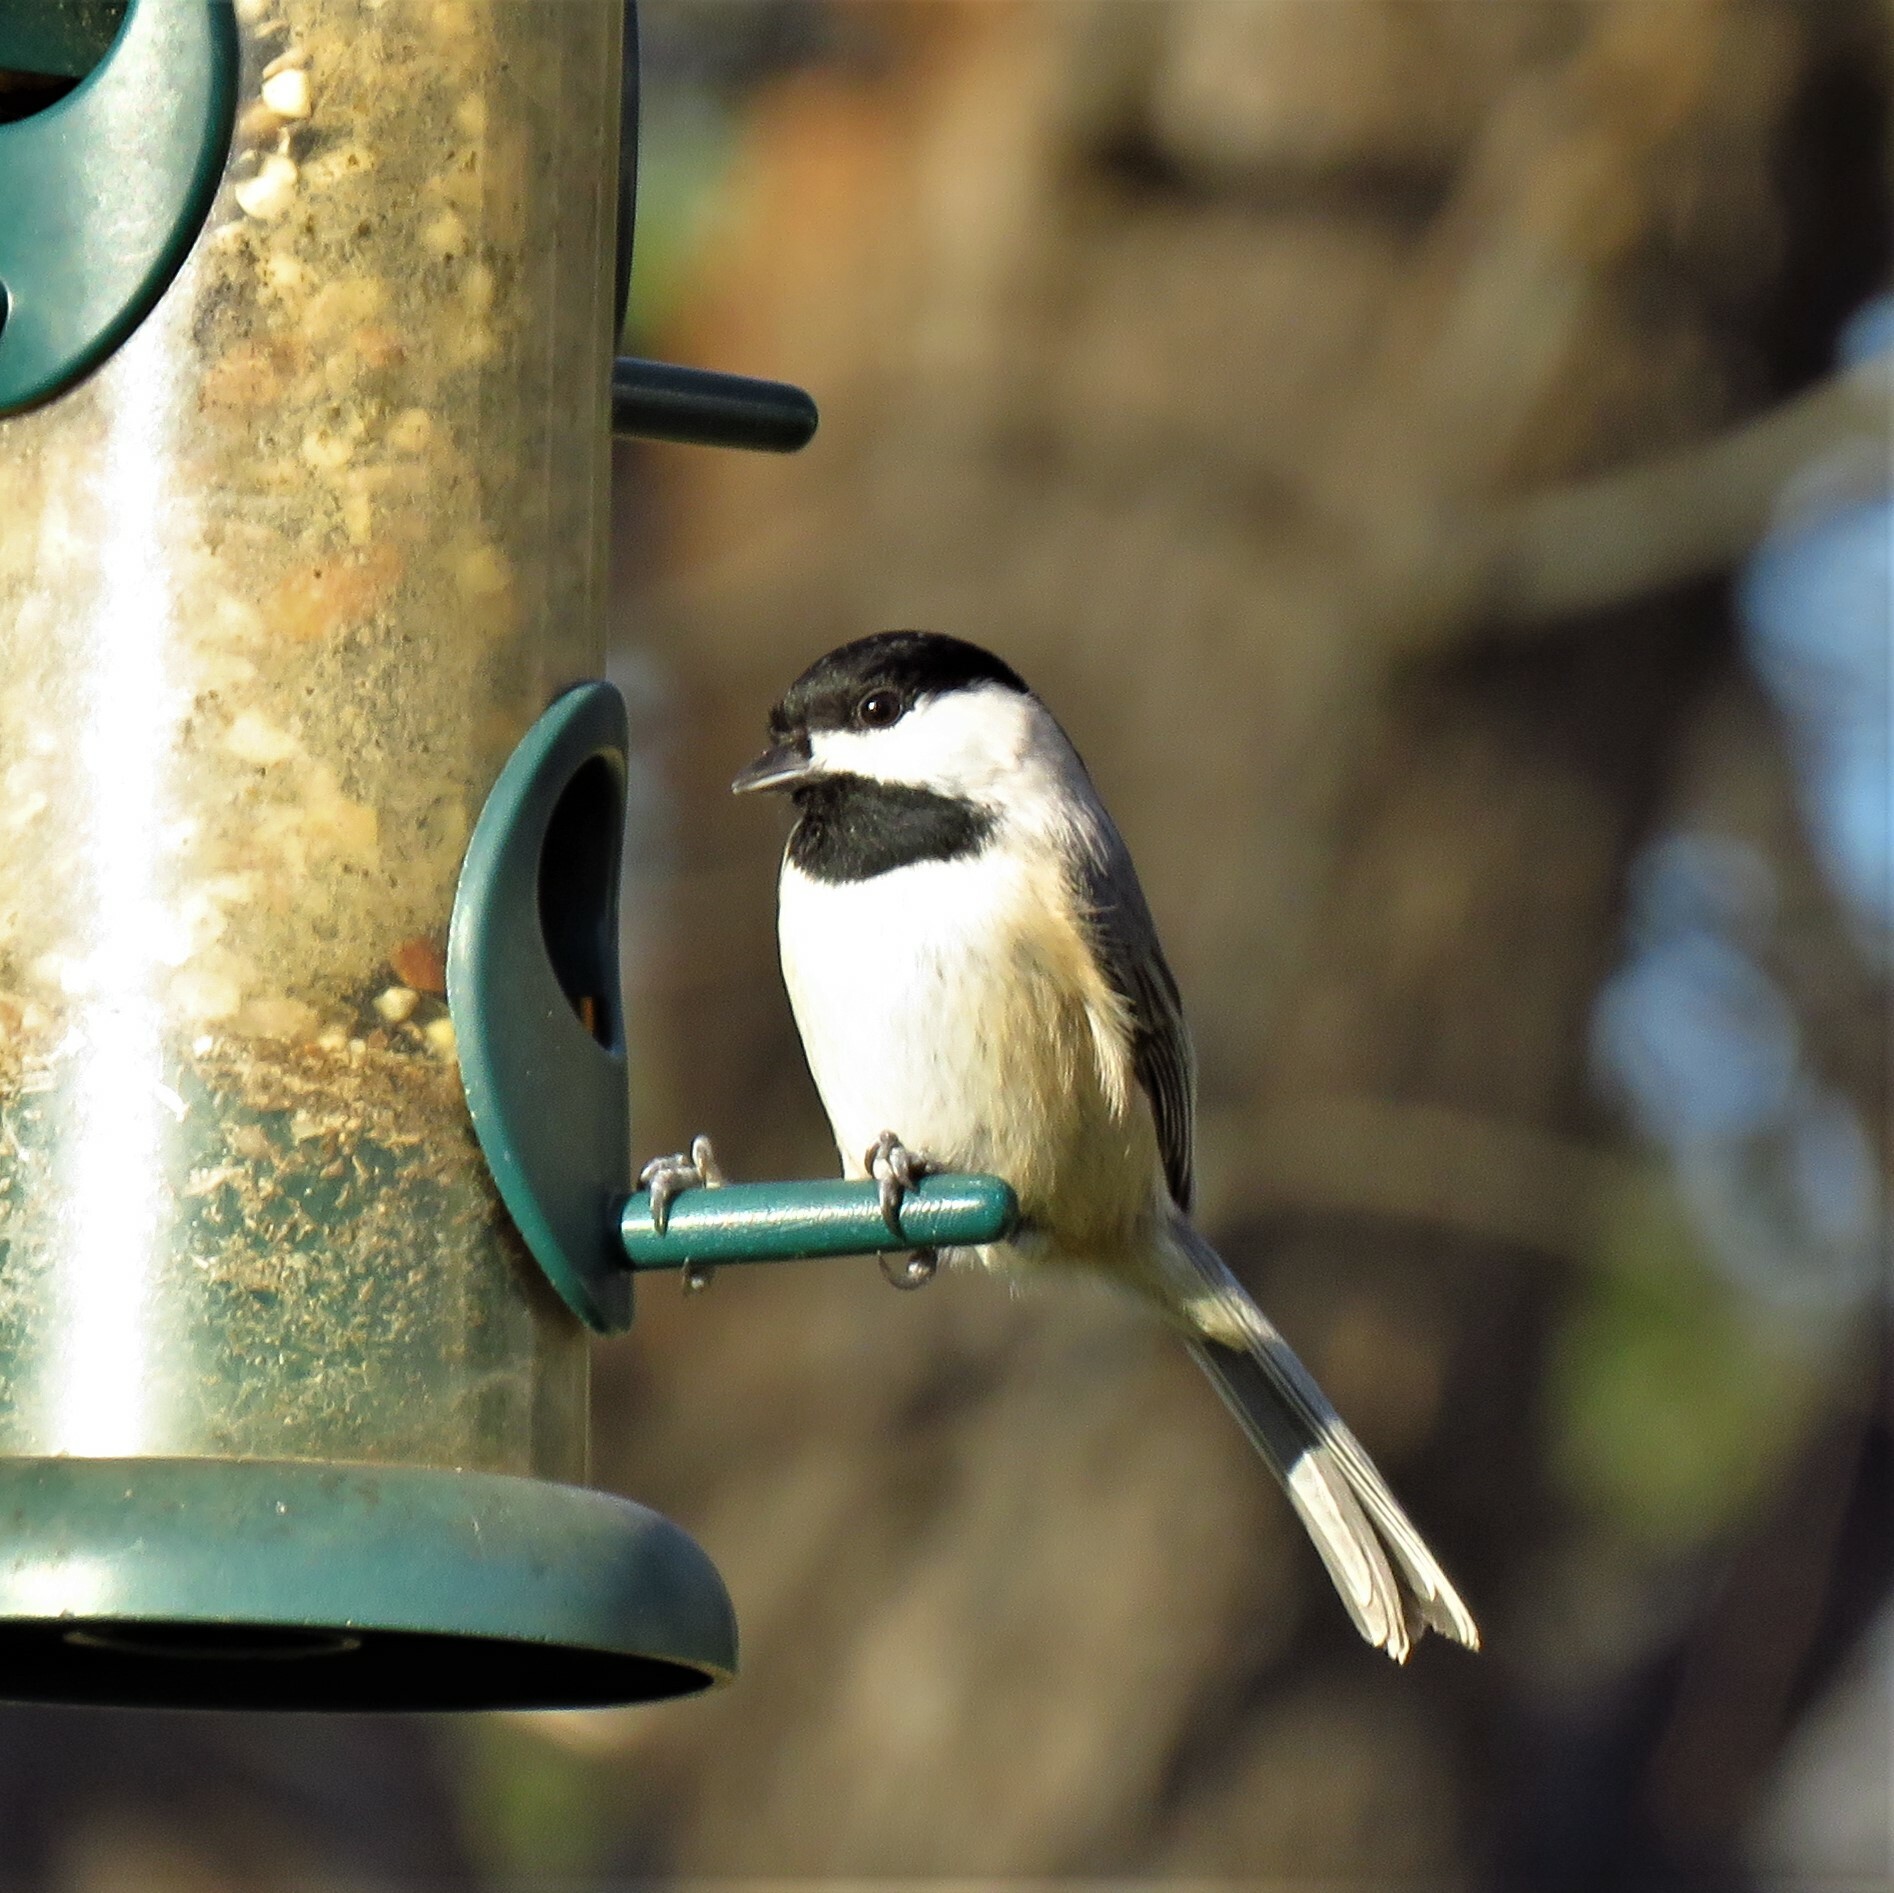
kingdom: Animalia
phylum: Chordata
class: Aves
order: Passeriformes
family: Paridae
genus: Poecile
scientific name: Poecile carolinensis
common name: Carolina chickadee
